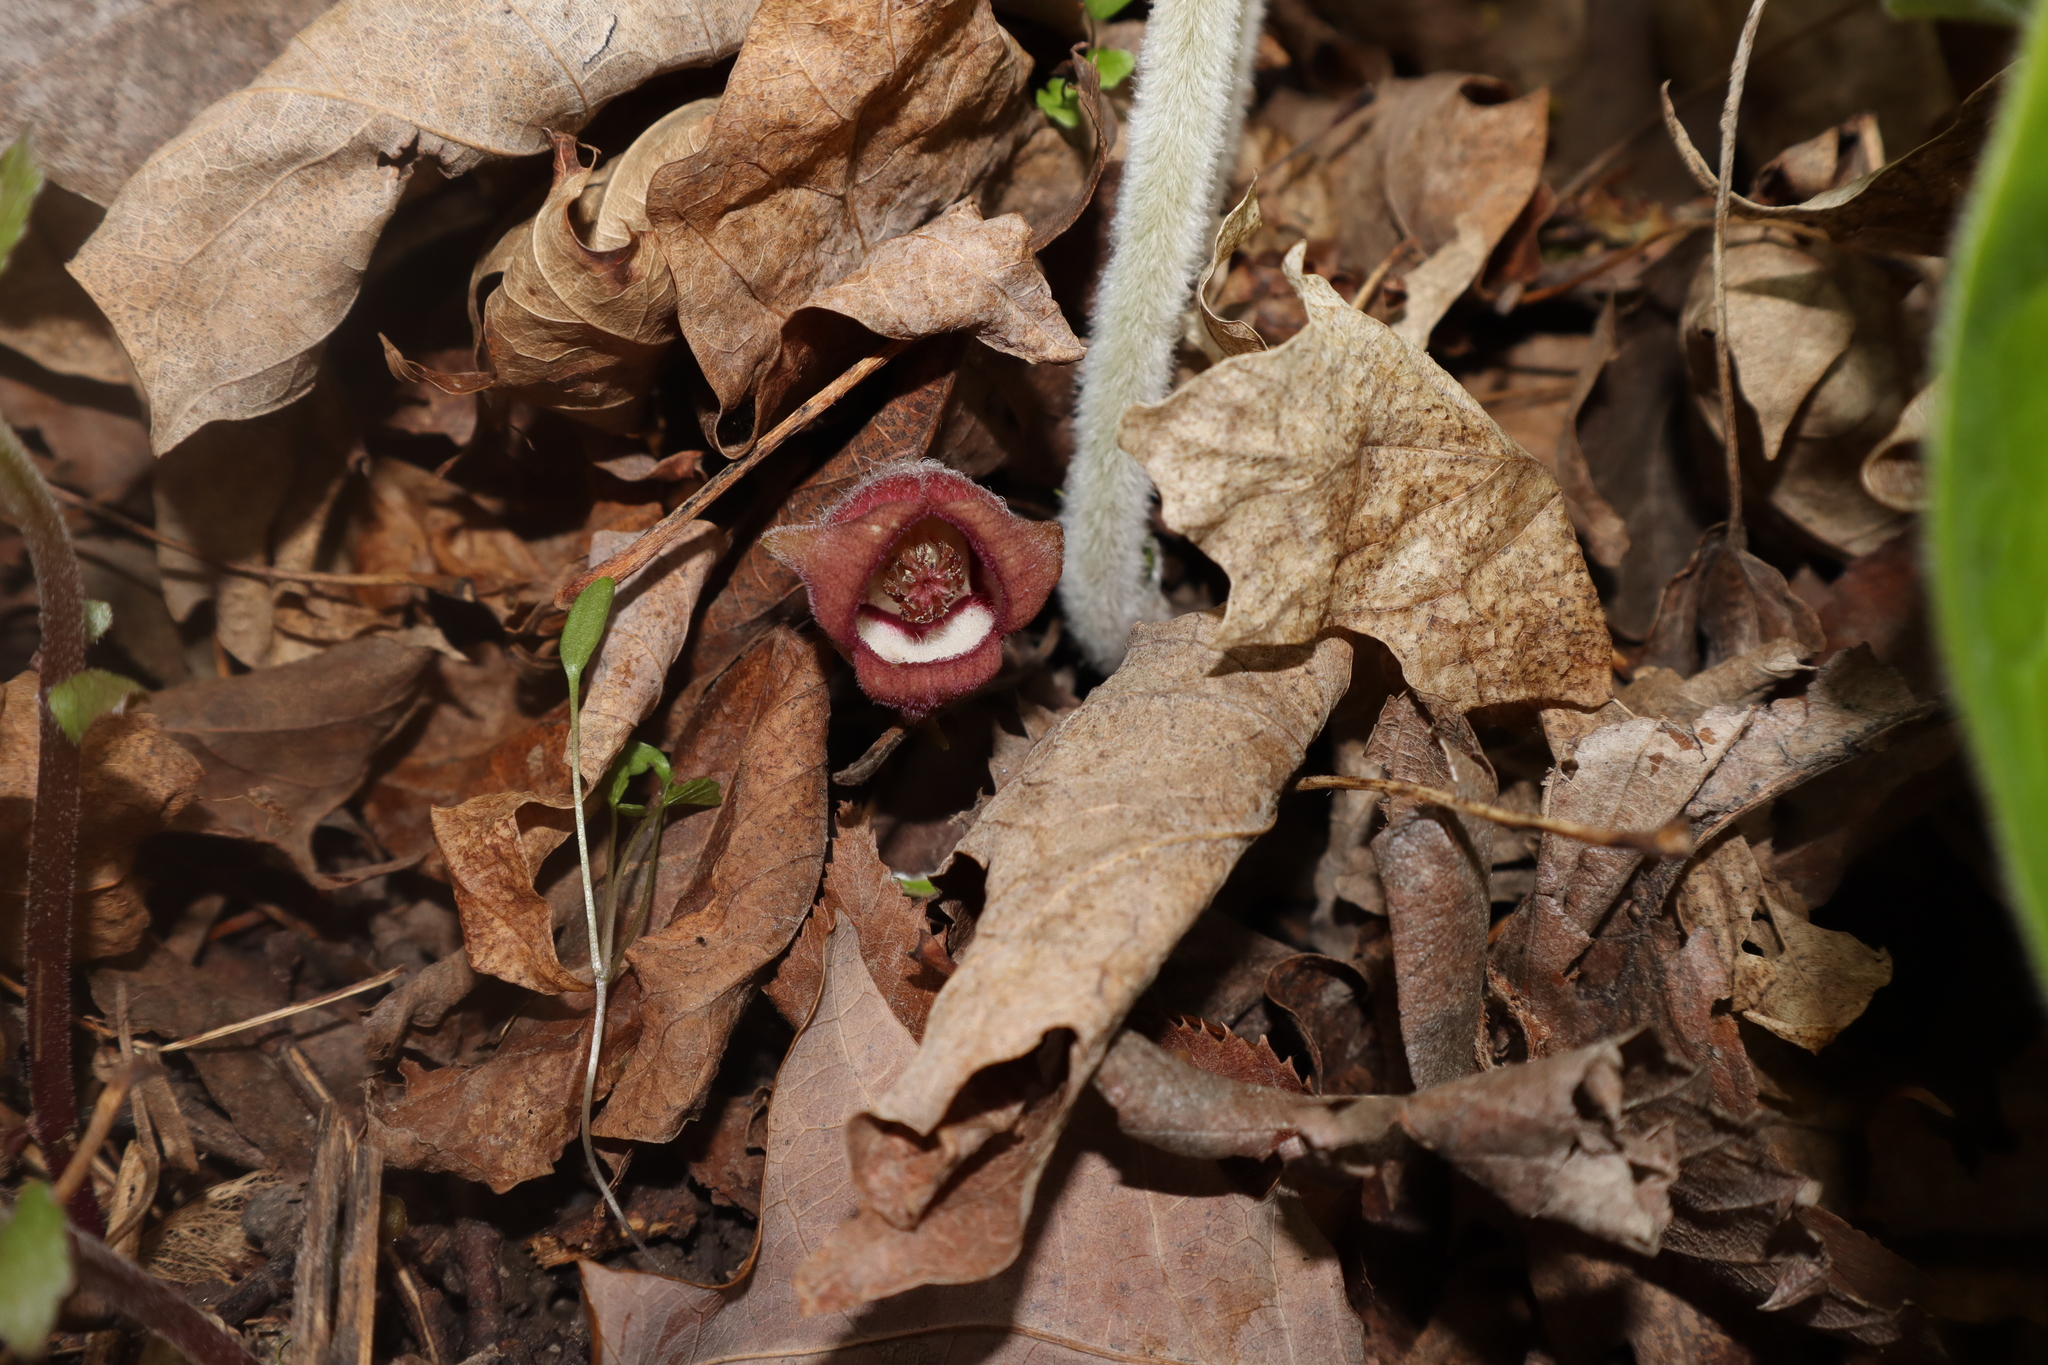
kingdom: Plantae
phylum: Tracheophyta
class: Magnoliopsida
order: Piperales
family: Aristolochiaceae
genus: Asarum
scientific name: Asarum canadense
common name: Wild ginger
